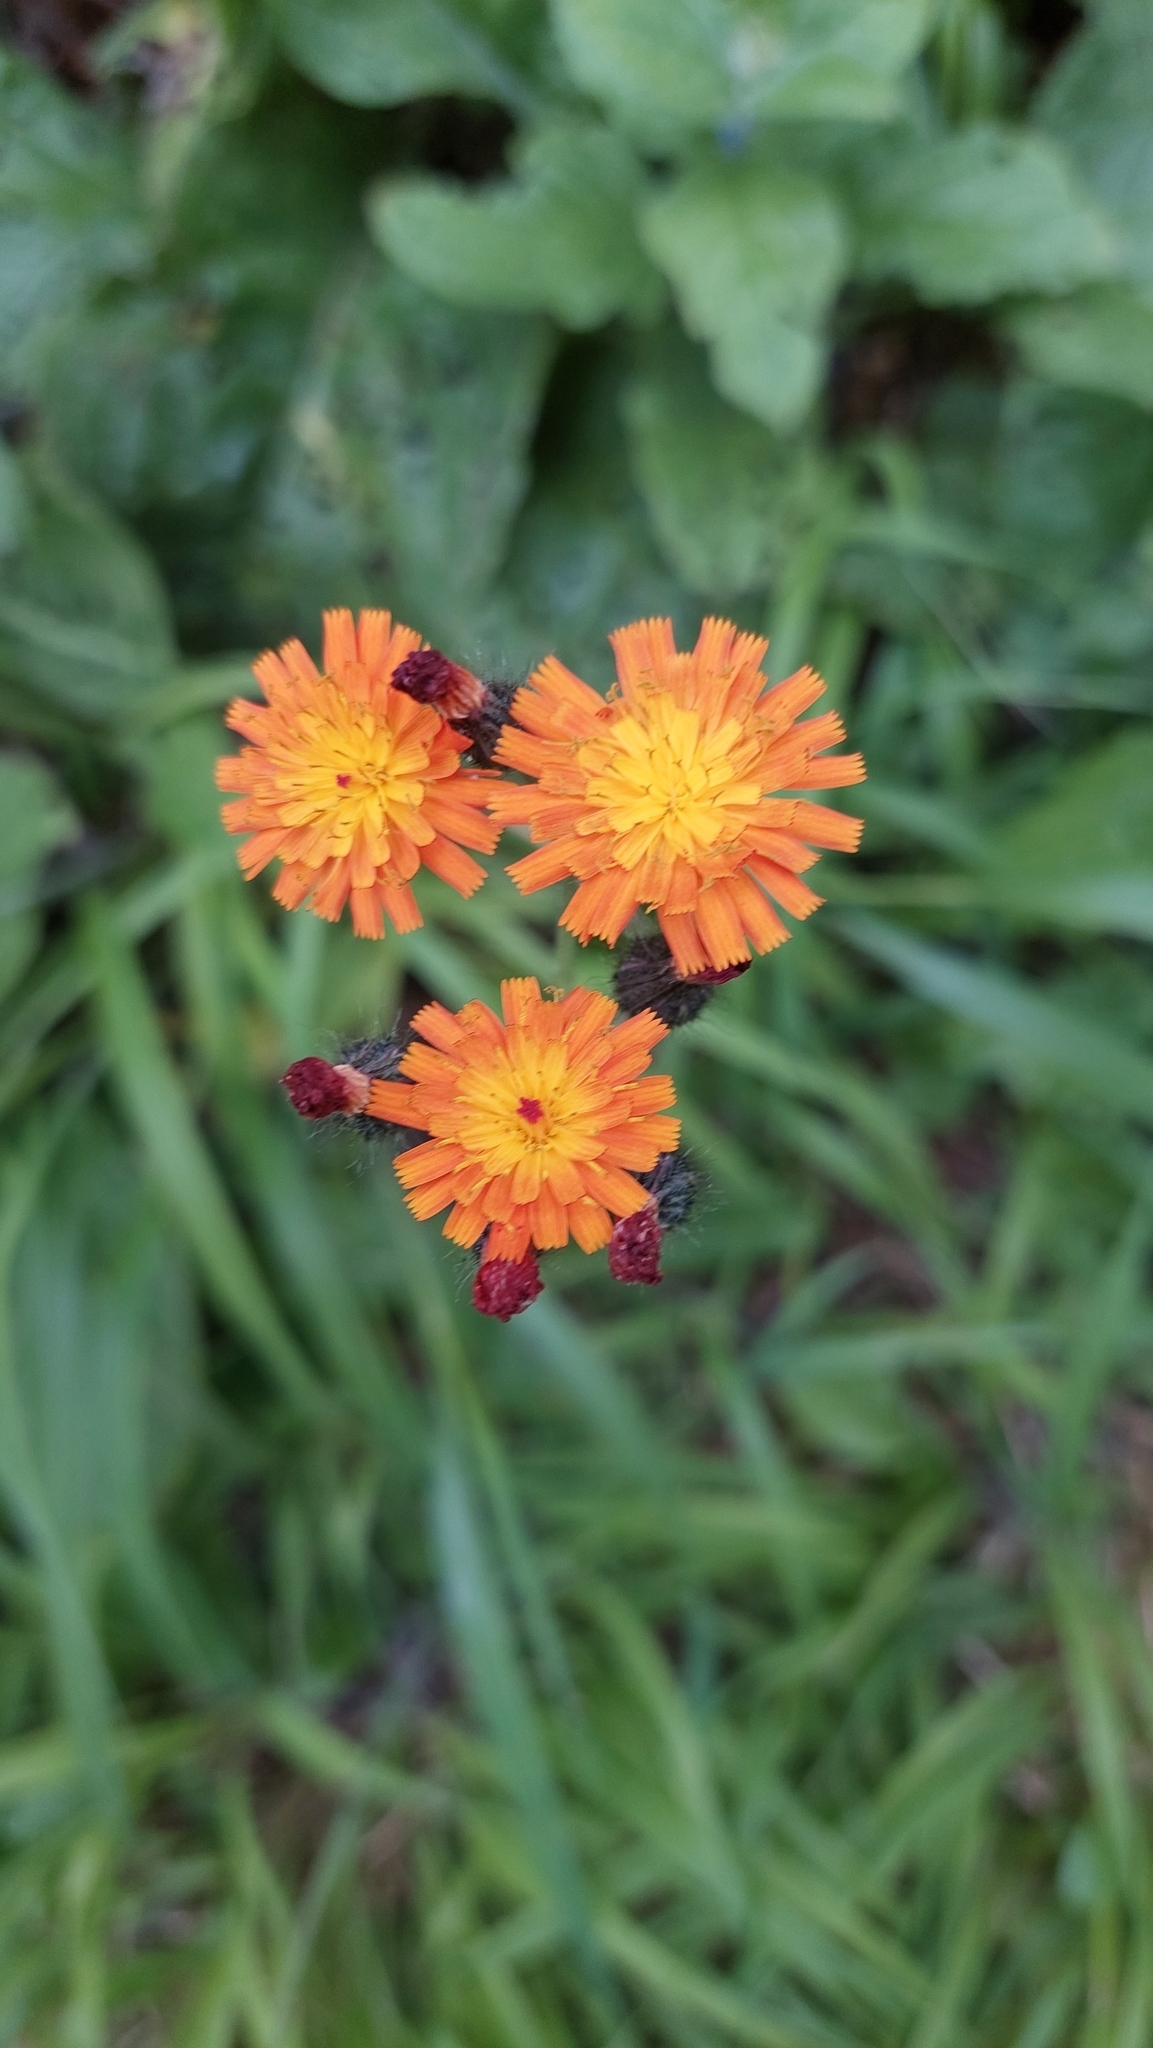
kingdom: Plantae
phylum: Tracheophyta
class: Magnoliopsida
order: Asterales
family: Asteraceae
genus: Pilosella
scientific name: Pilosella aurantiaca
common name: Fox-and-cubs
